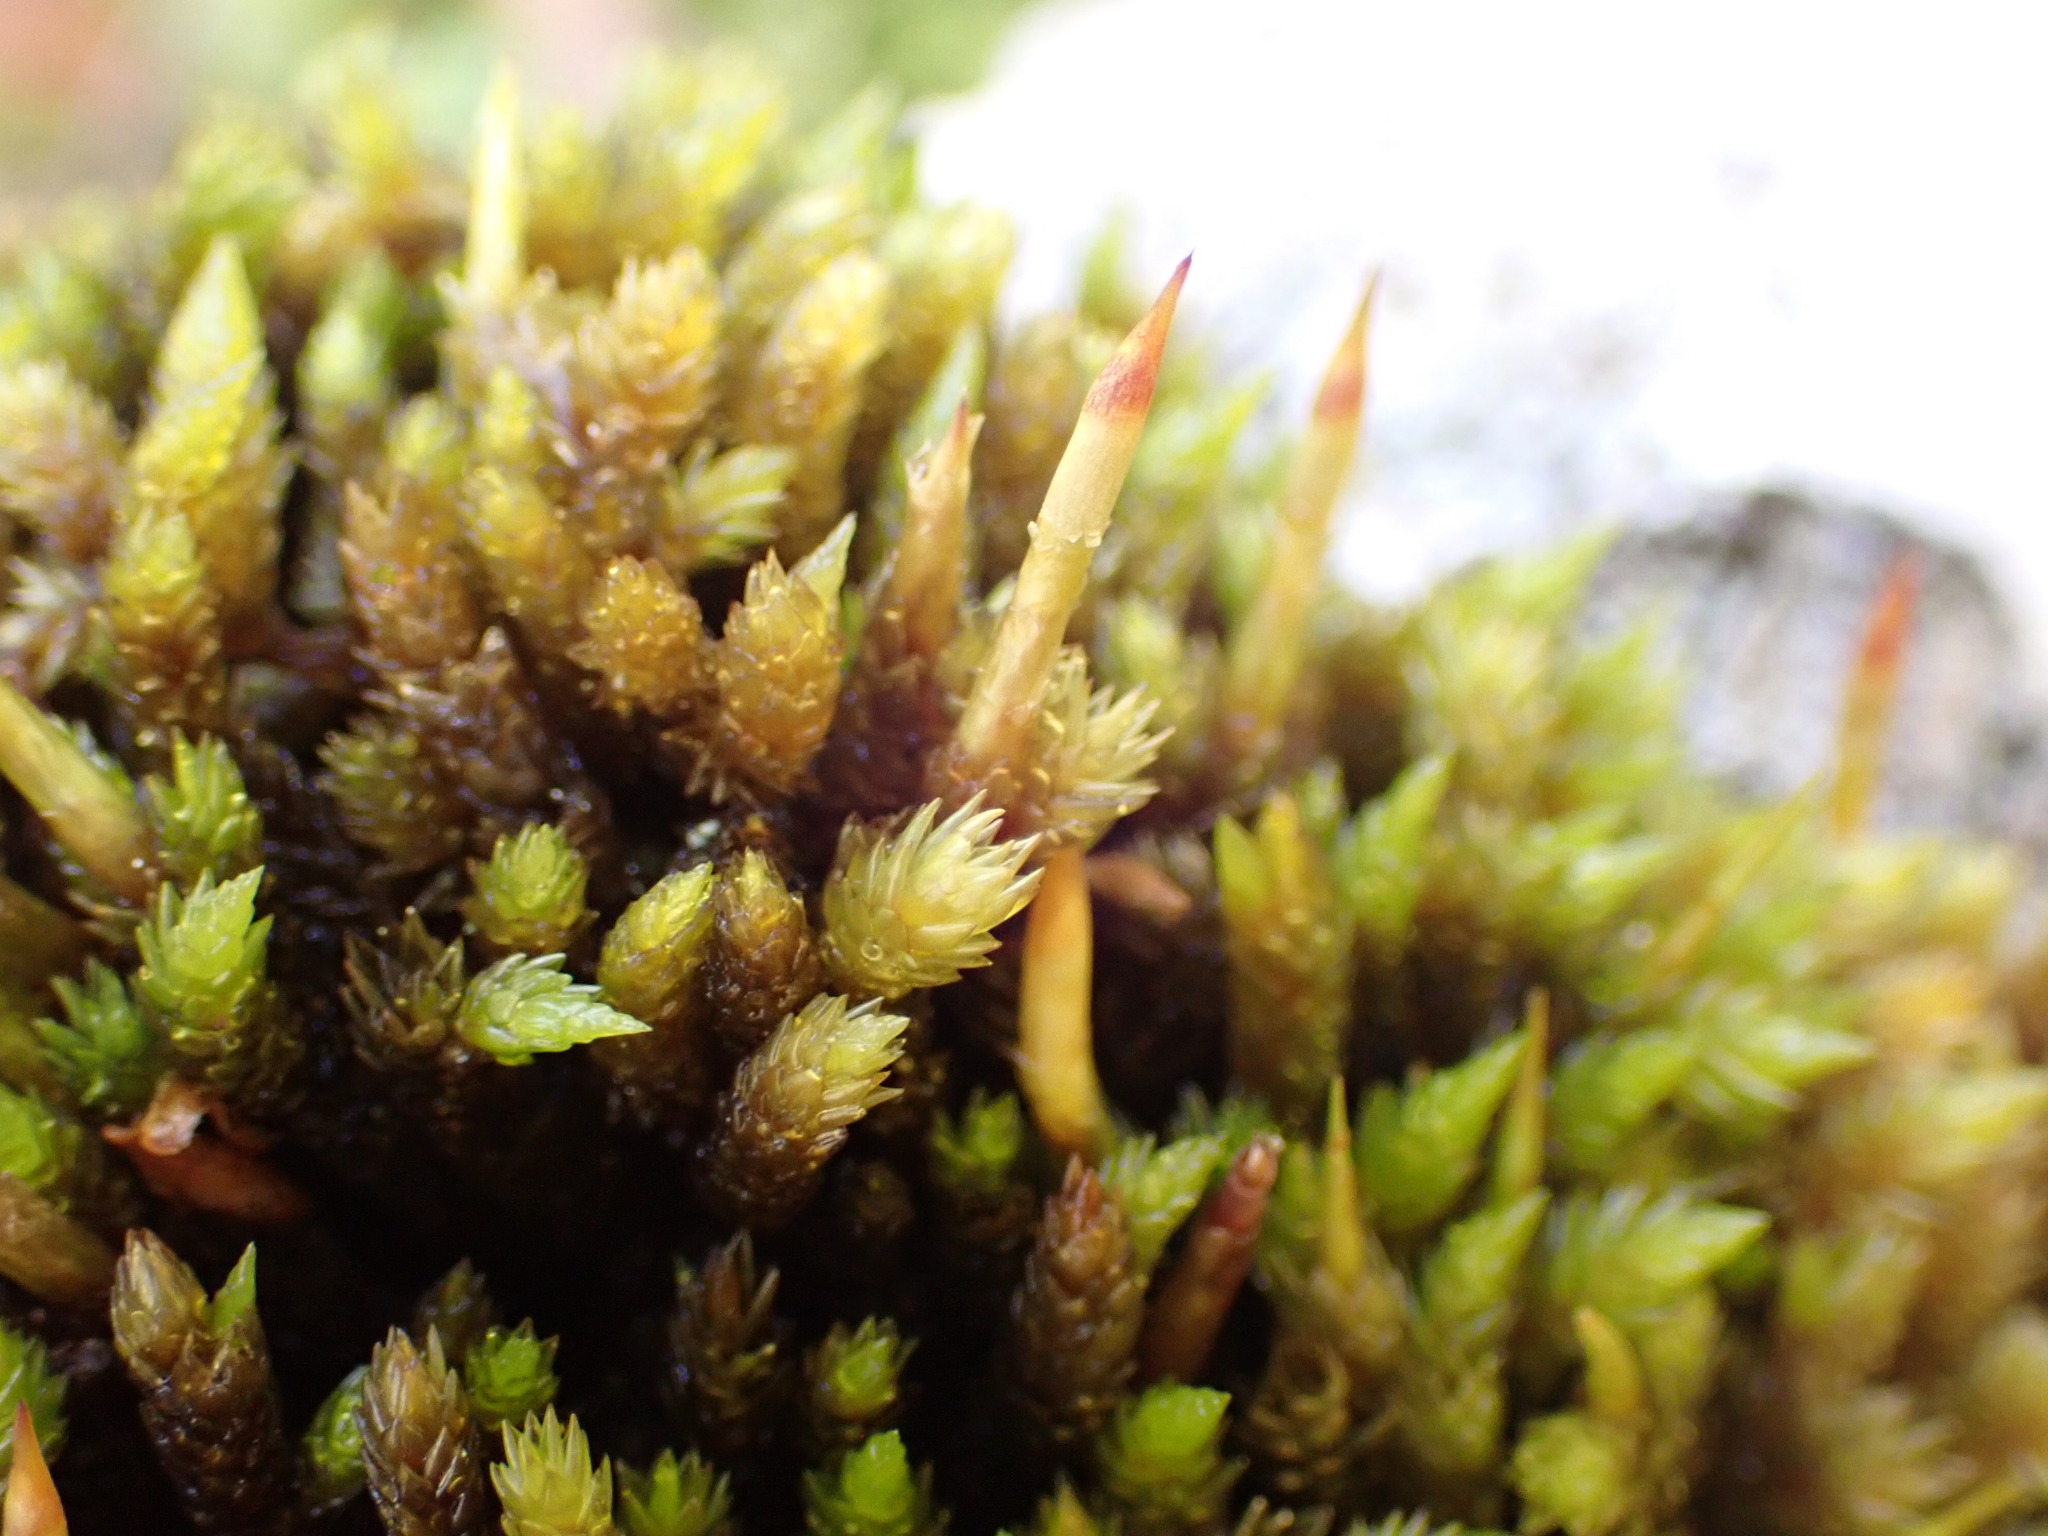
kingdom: Plantae
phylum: Bryophyta
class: Bryopsida
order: Dicranales
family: Dicranaceae
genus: Dicnemon
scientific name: Dicnemon calycinum
